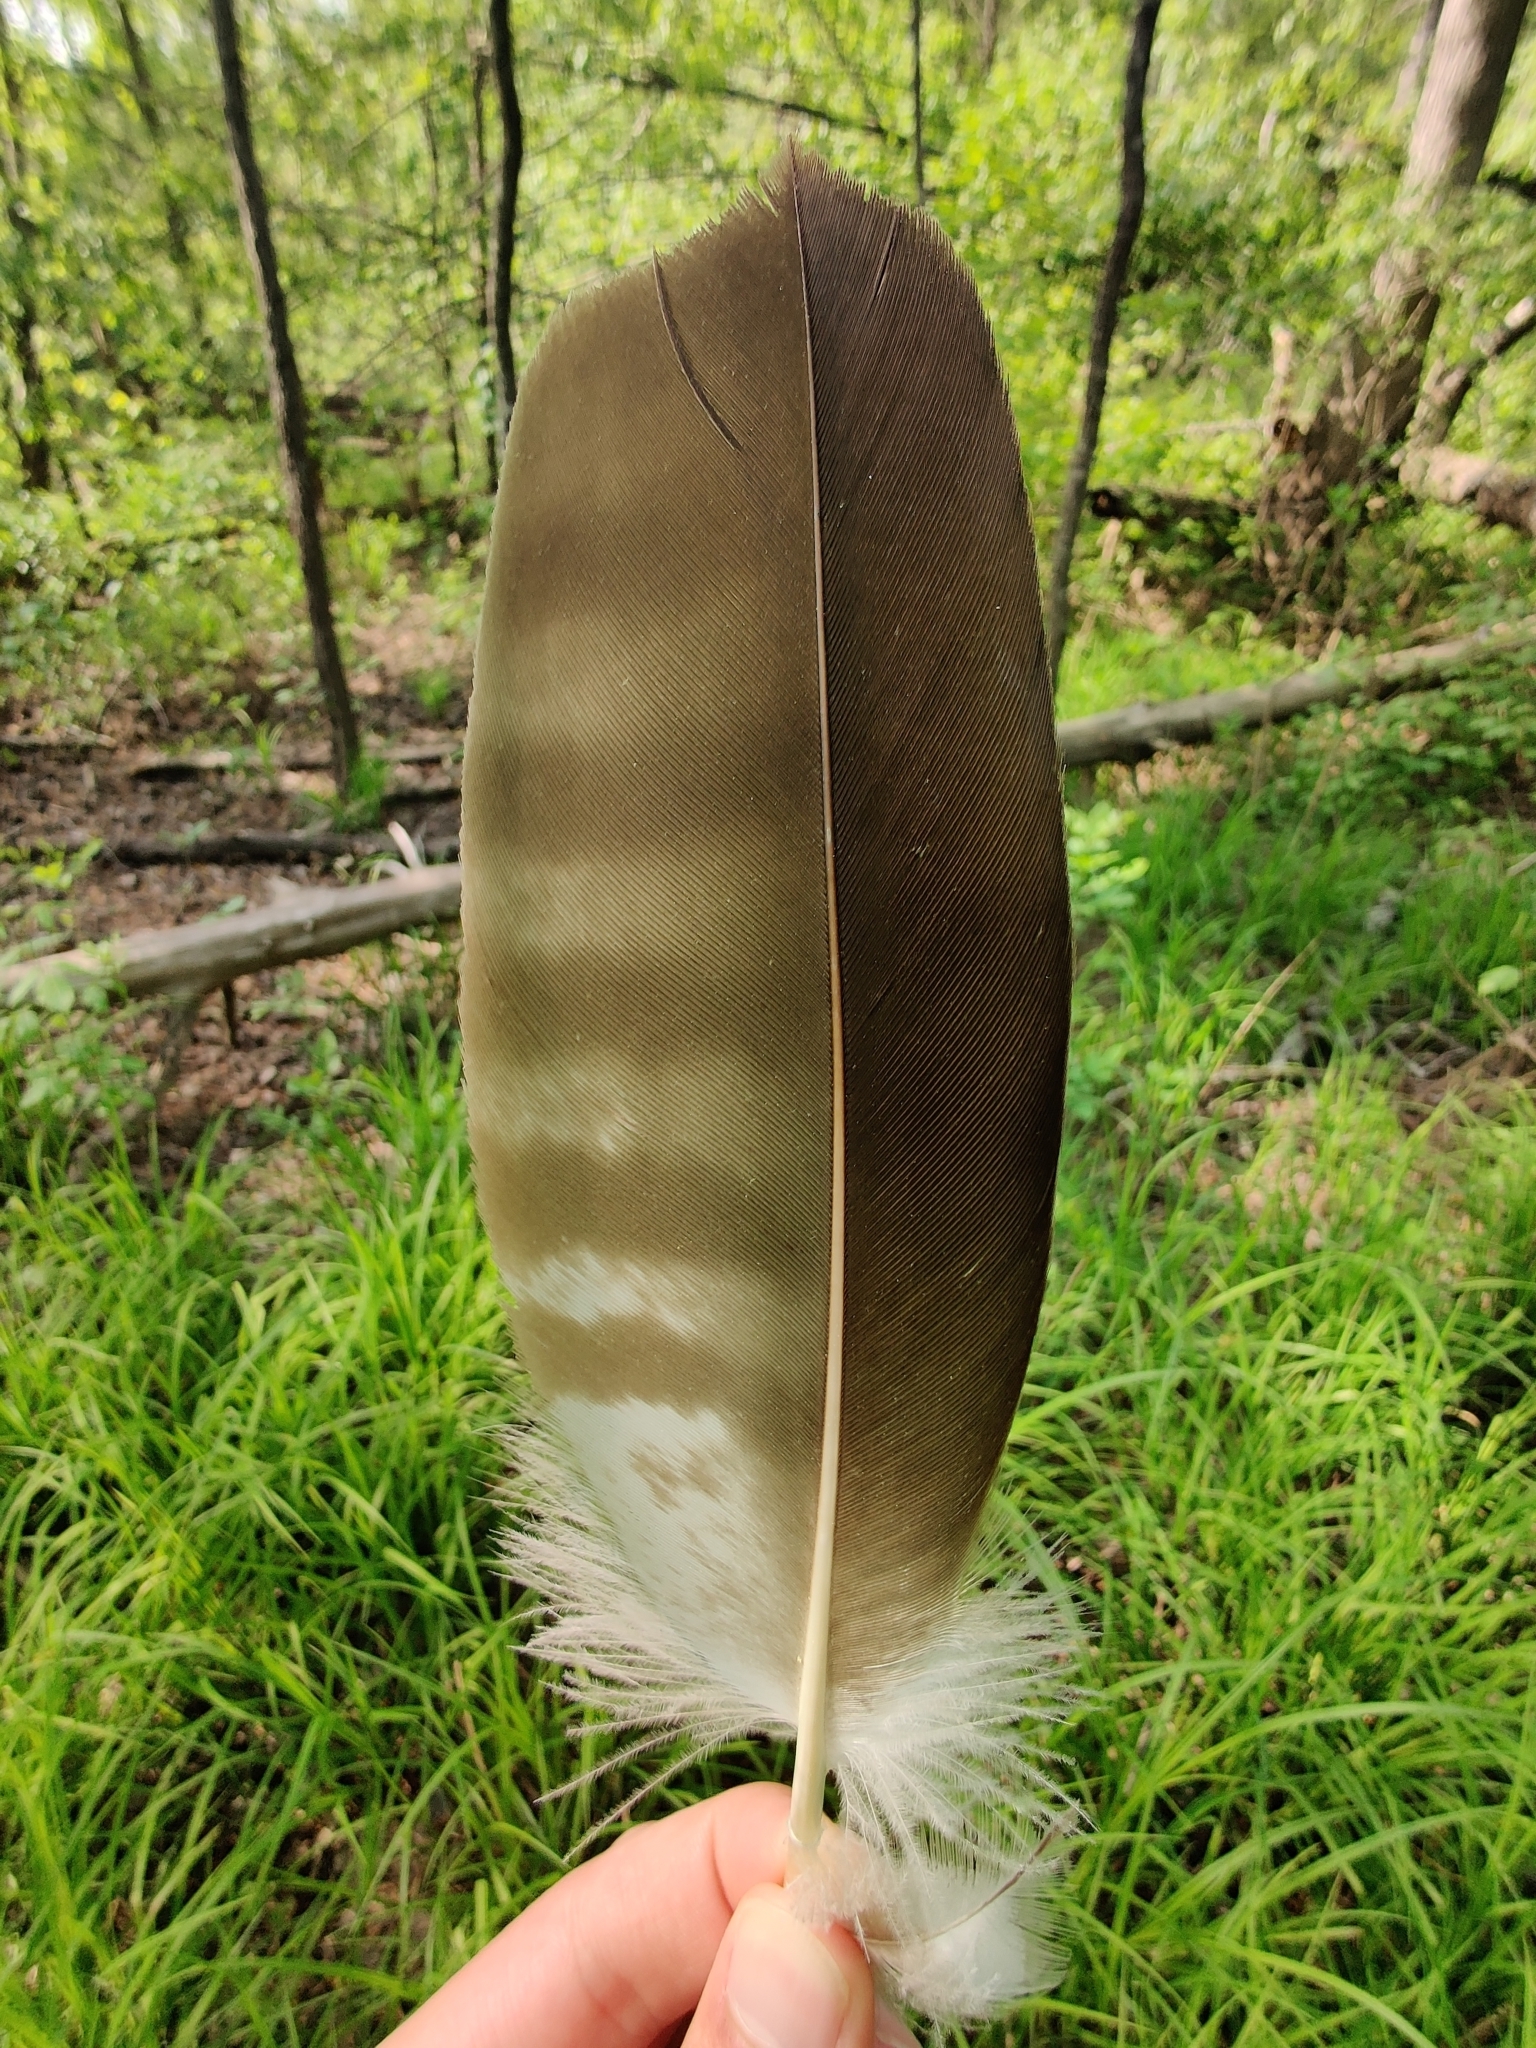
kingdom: Animalia
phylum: Chordata
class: Aves
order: Accipitriformes
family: Pandionidae
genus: Pandion
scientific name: Pandion haliaetus
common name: Osprey
